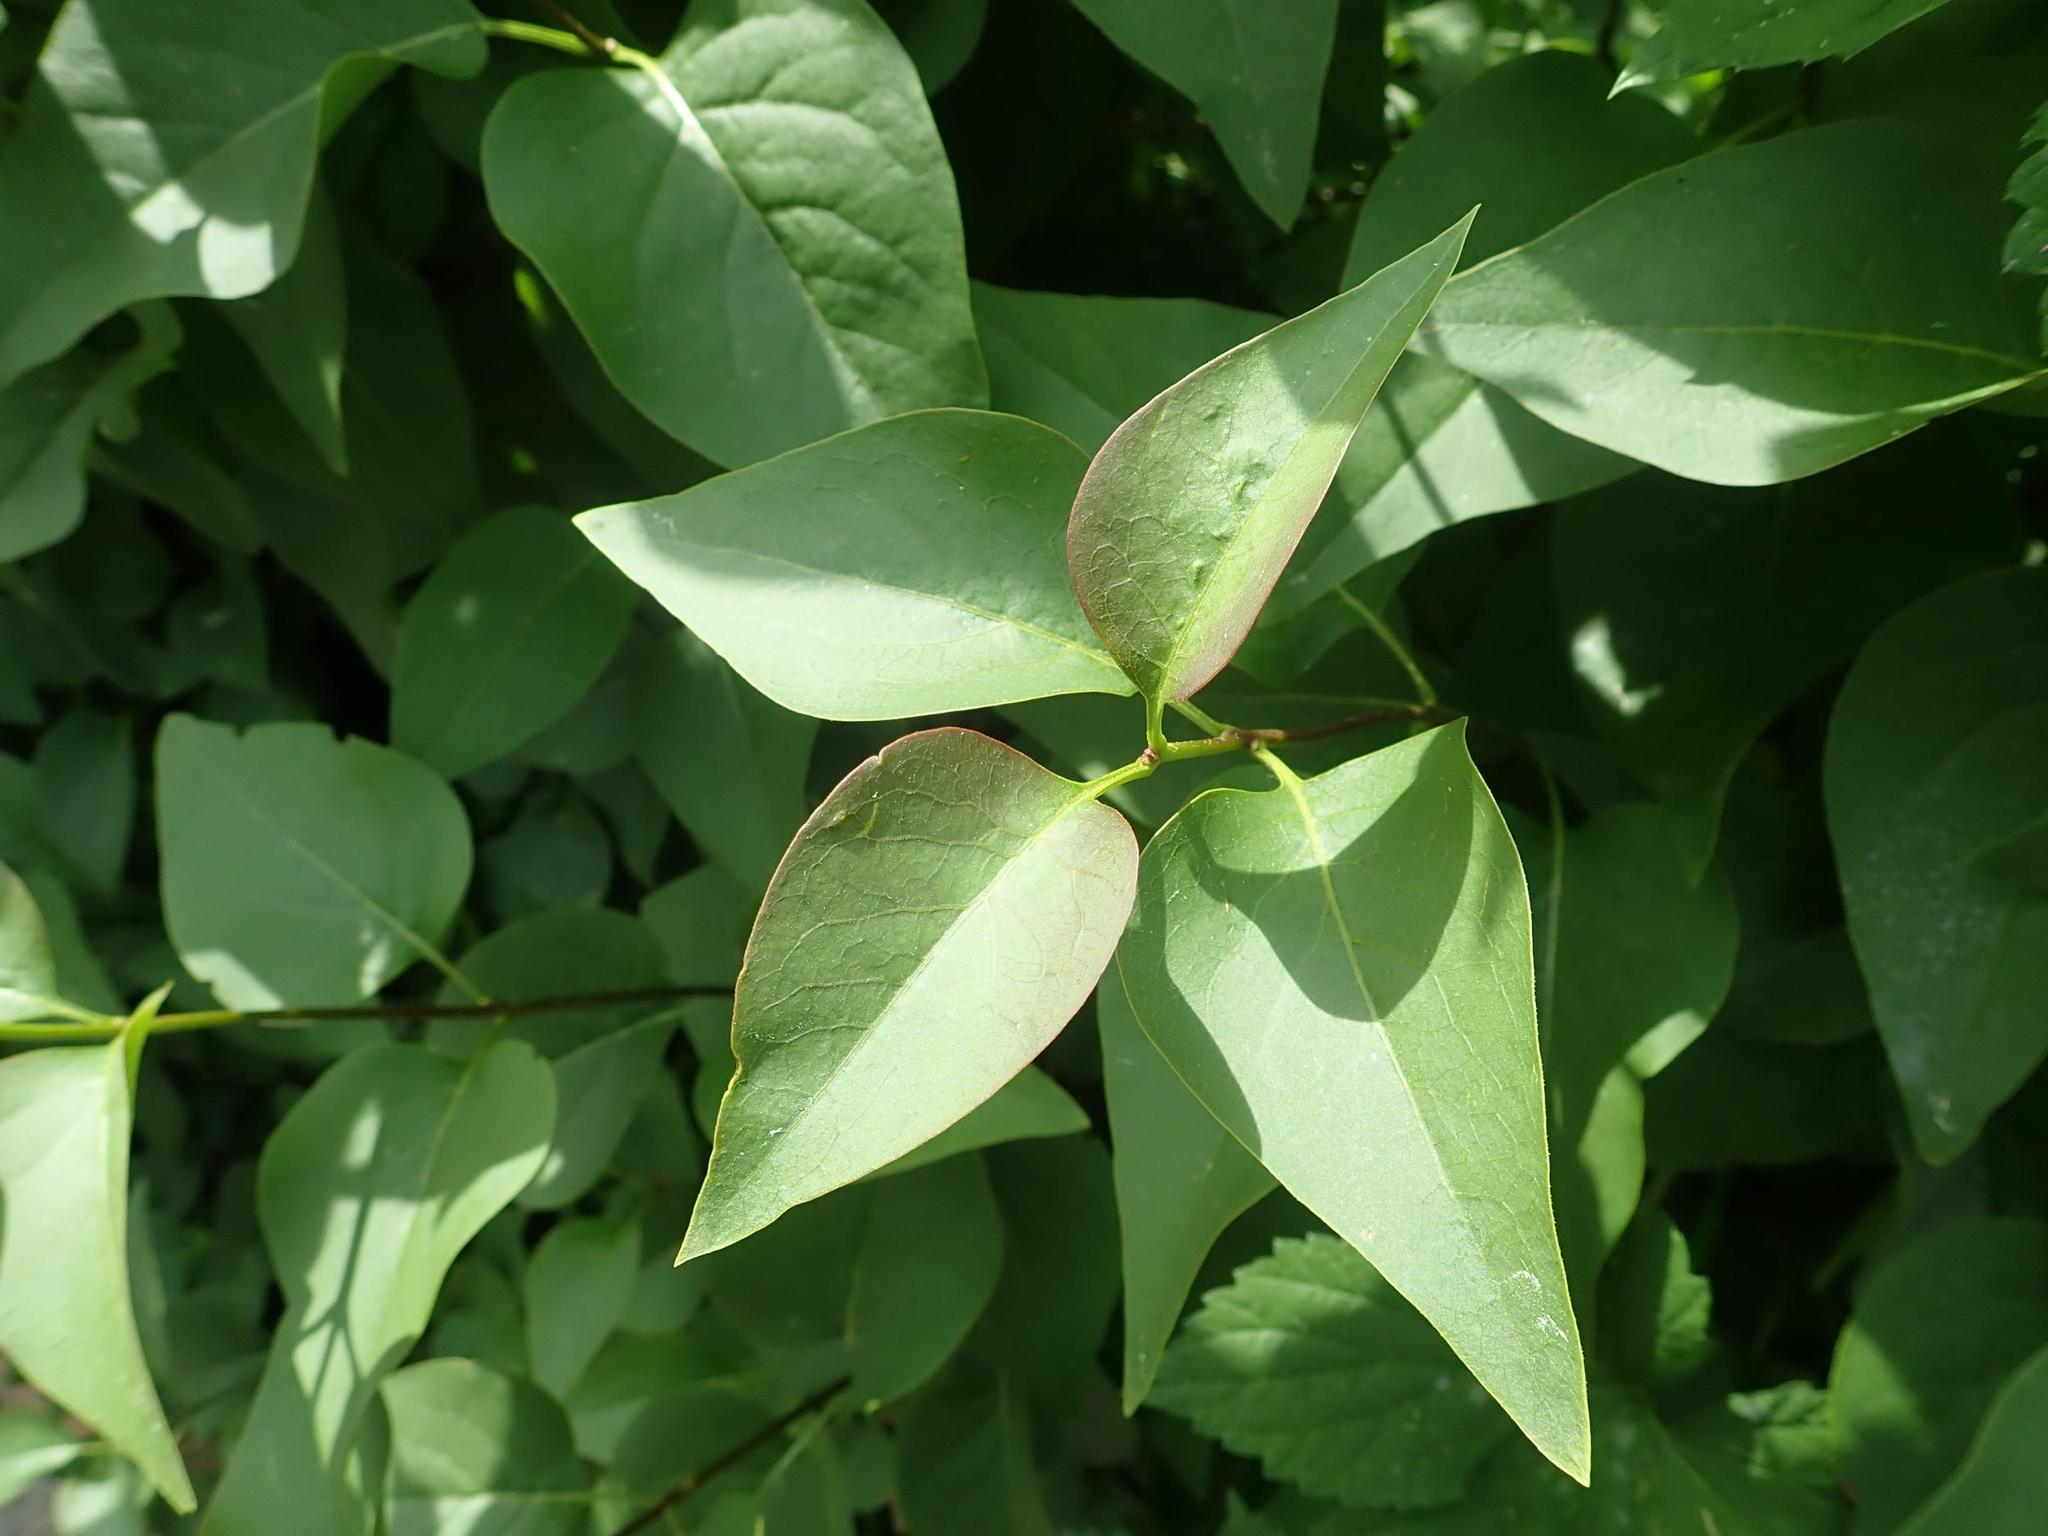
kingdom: Plantae
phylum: Tracheophyta
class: Magnoliopsida
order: Lamiales
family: Oleaceae
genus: Syringa
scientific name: Syringa vulgaris
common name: Common lilac
